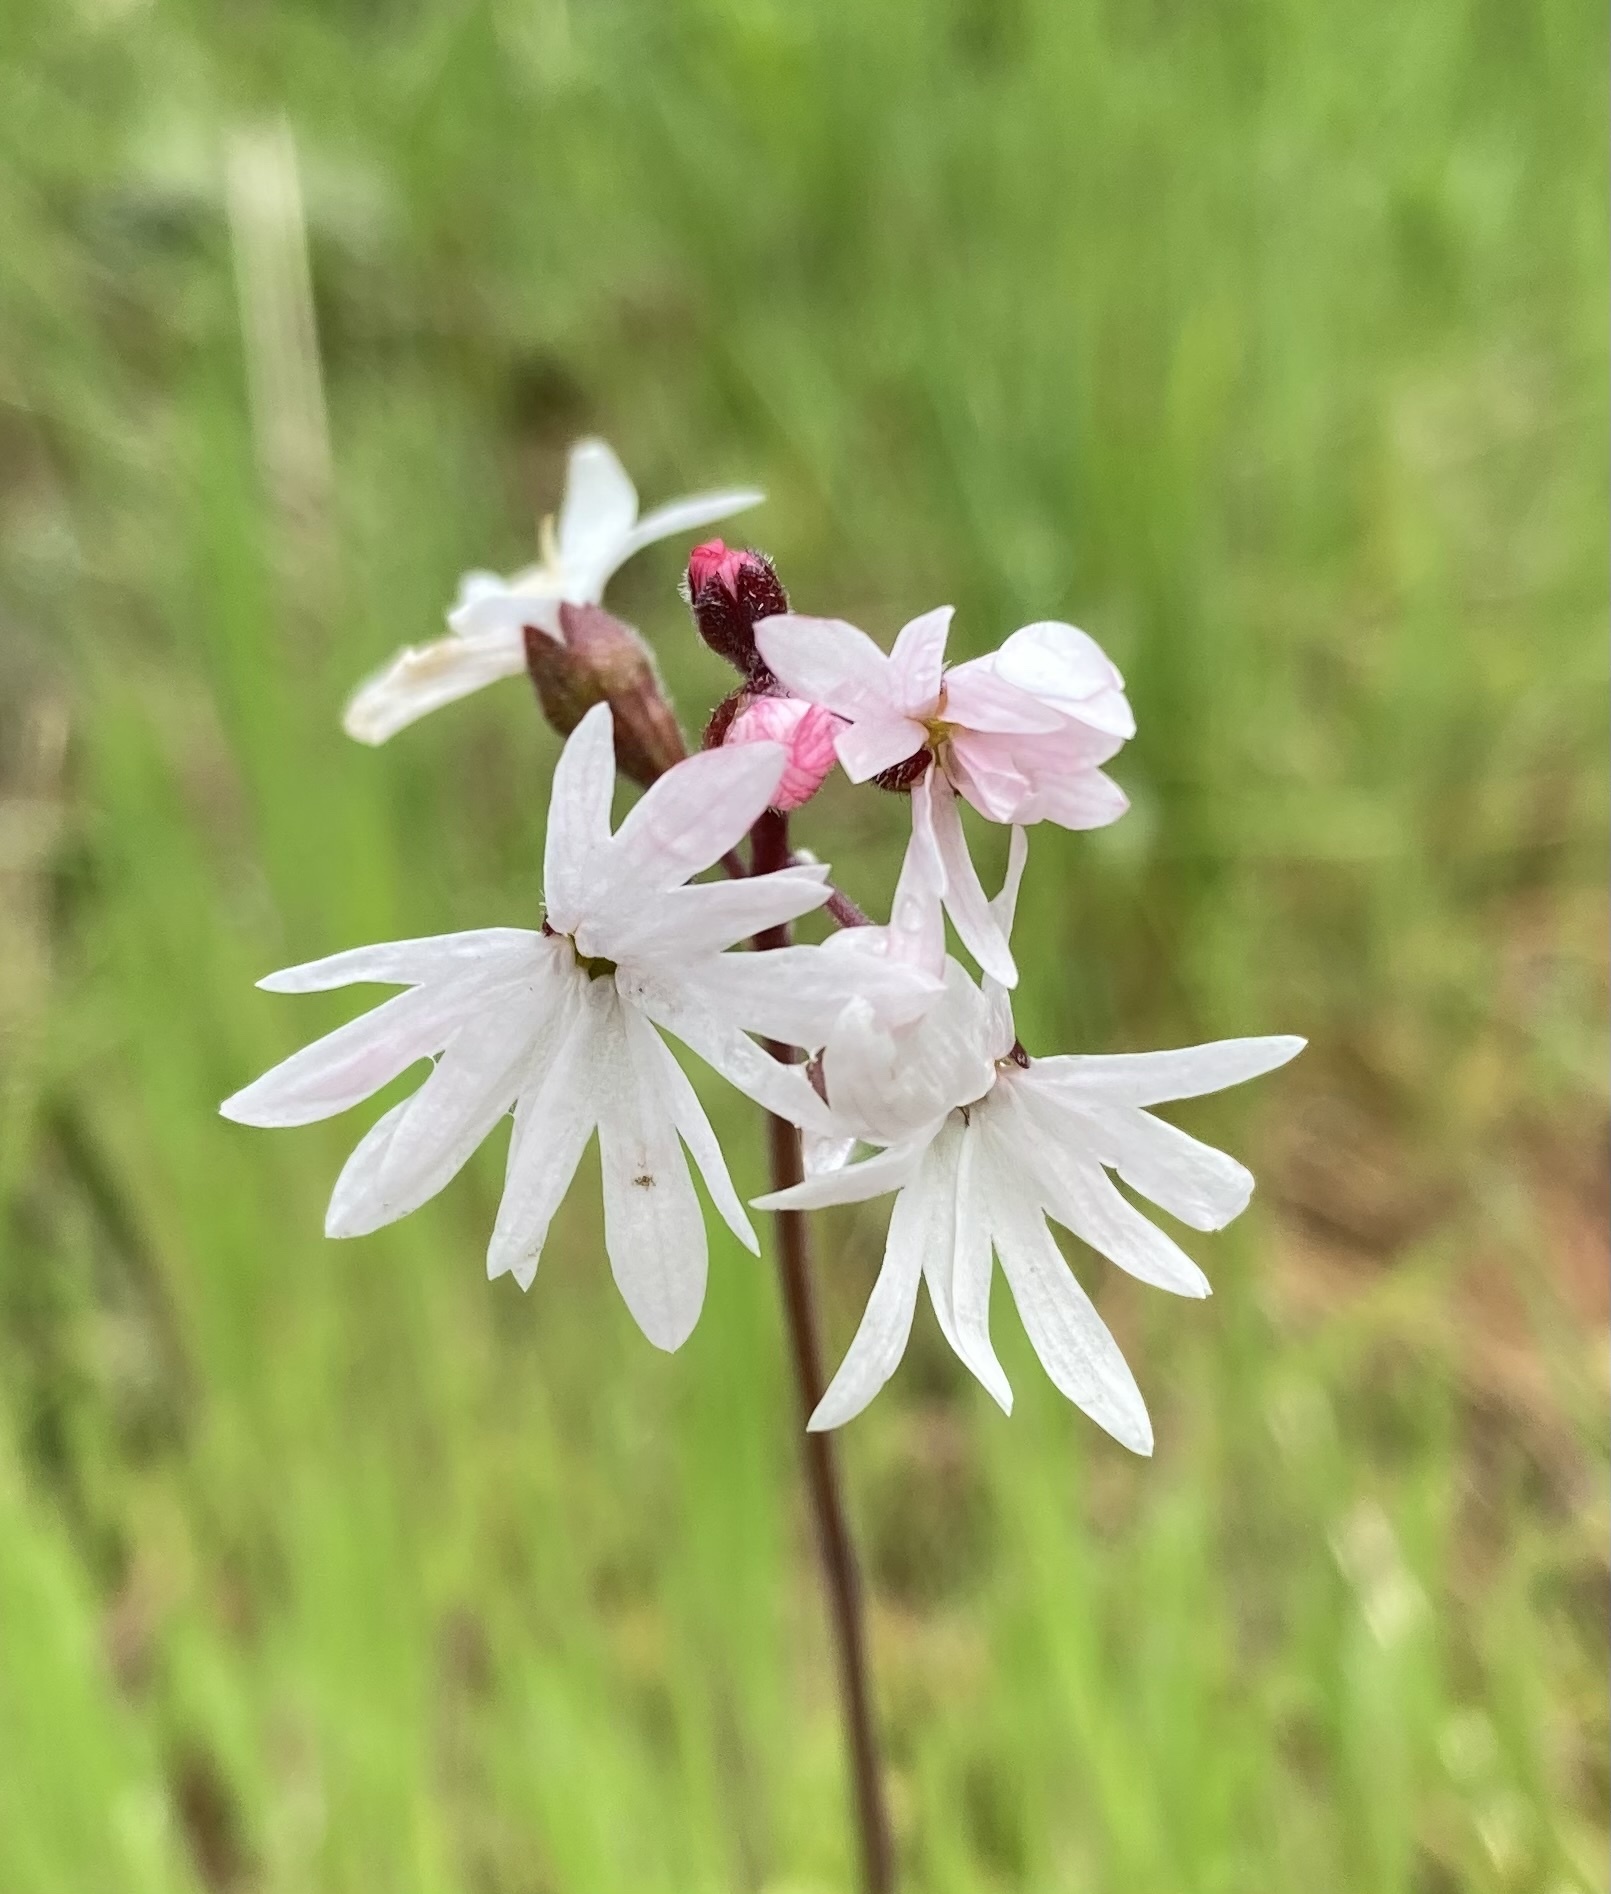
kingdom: Plantae
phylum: Tracheophyta
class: Magnoliopsida
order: Saxifragales
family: Saxifragaceae
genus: Lithophragma
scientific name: Lithophragma parviflorum
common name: Small-flowered fringe-cup
